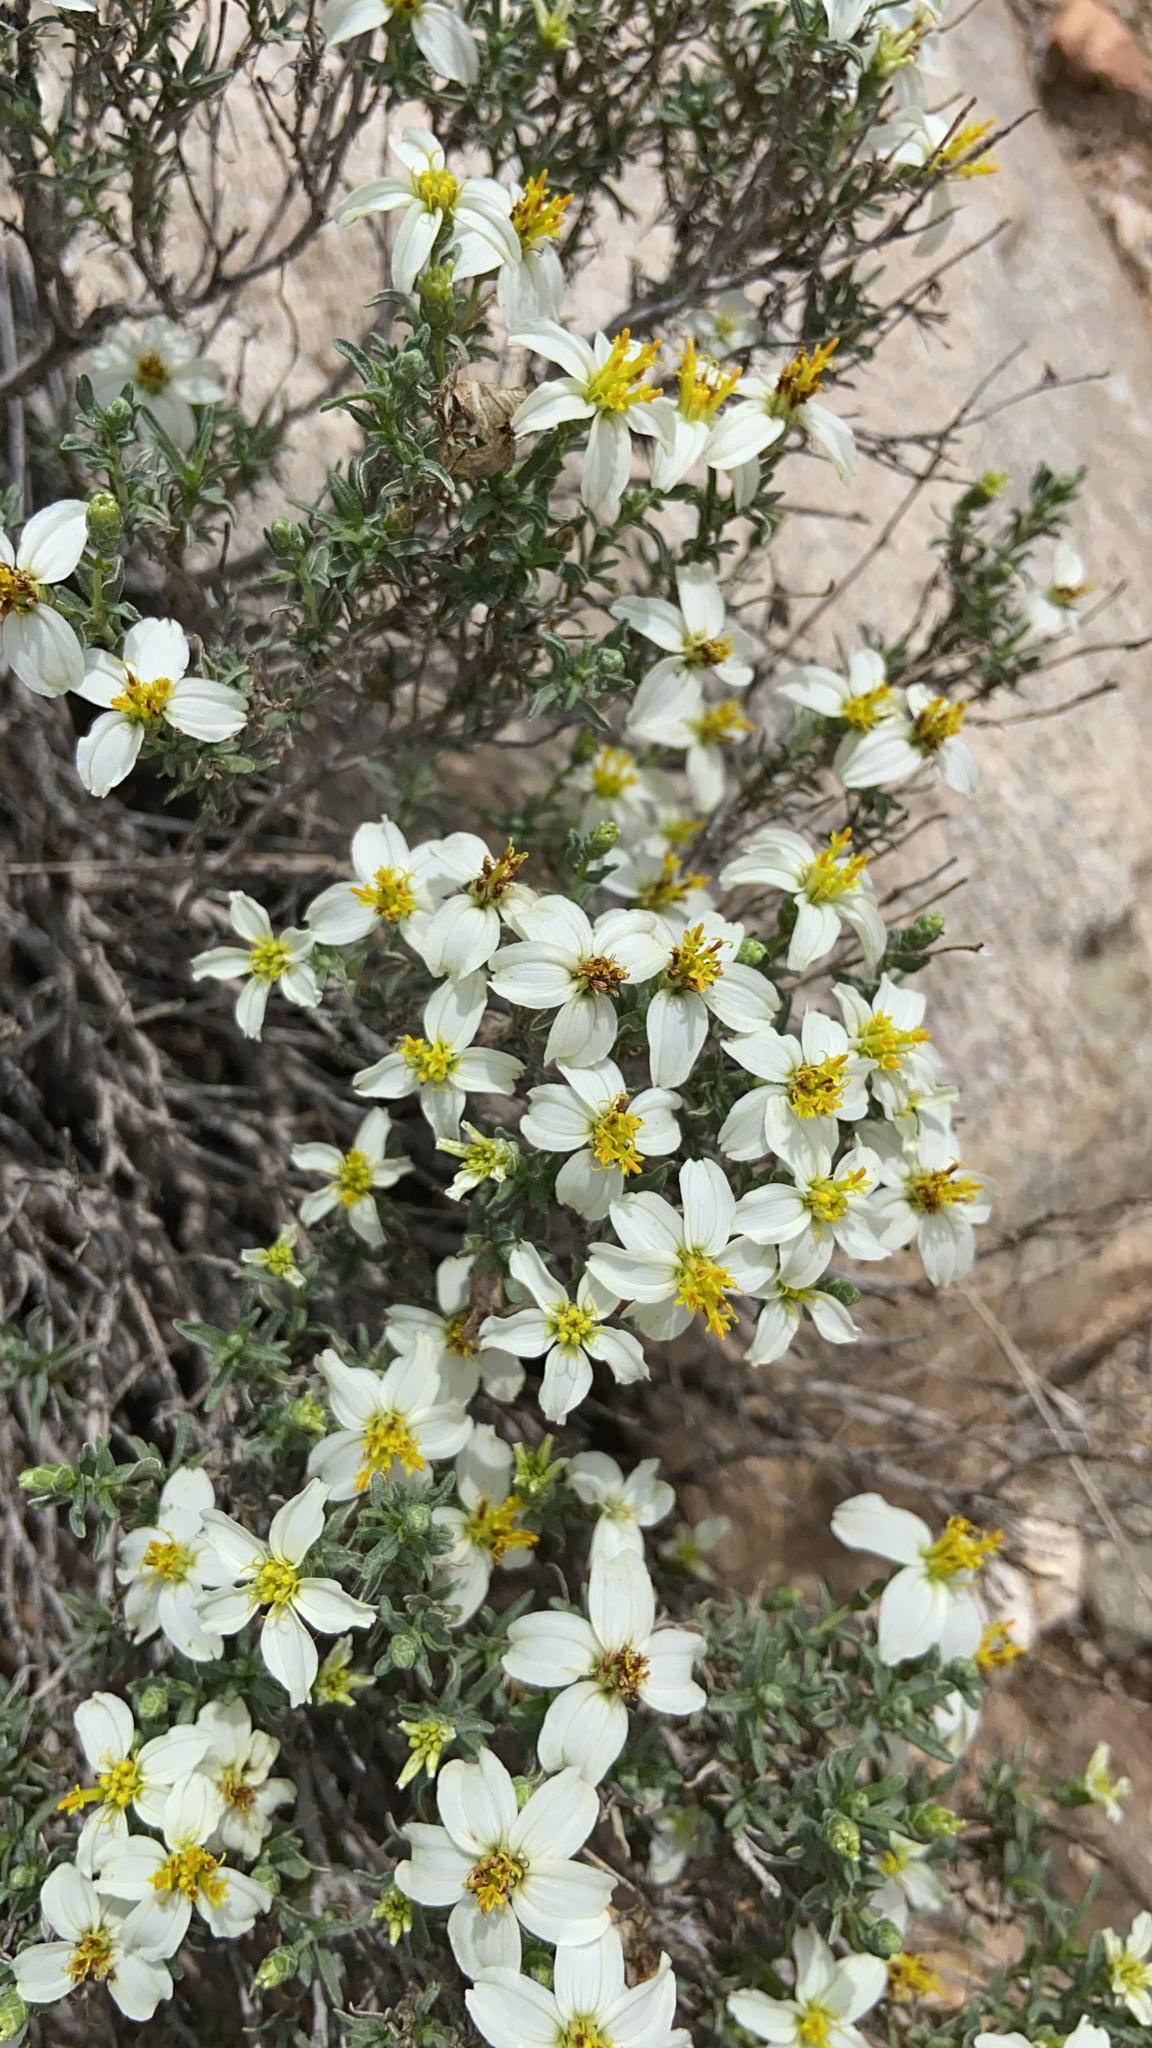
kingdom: Plantae
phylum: Tracheophyta
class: Magnoliopsida
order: Asterales
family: Asteraceae
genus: Zinnia
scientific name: Zinnia acerosa
